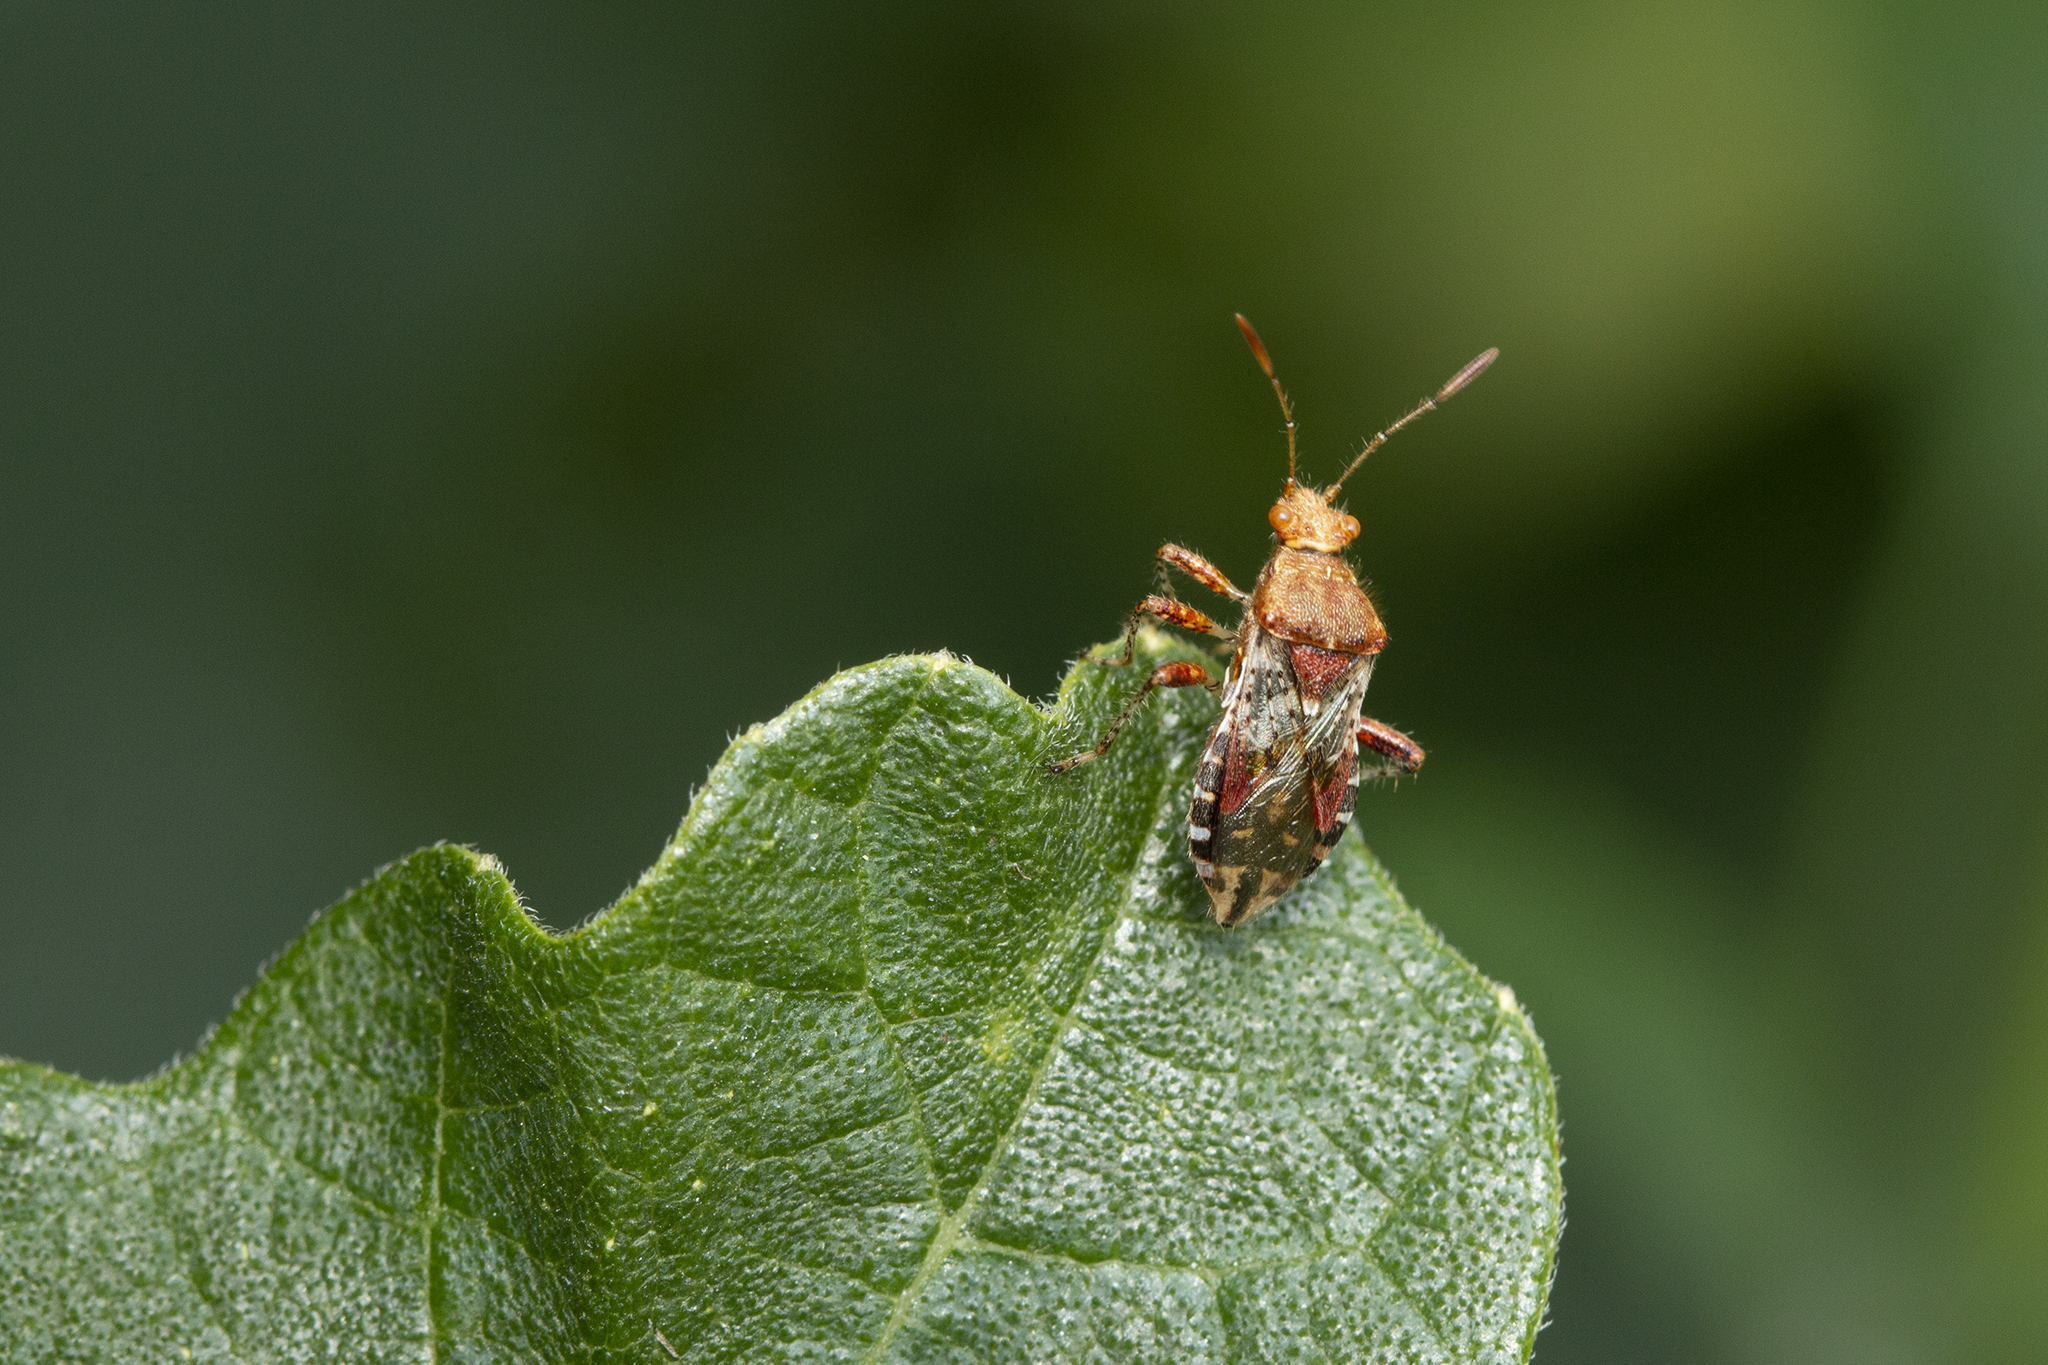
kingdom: Animalia
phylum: Arthropoda
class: Insecta
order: Hemiptera
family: Rhopalidae
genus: Rhopalus
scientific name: Rhopalus subrufus
